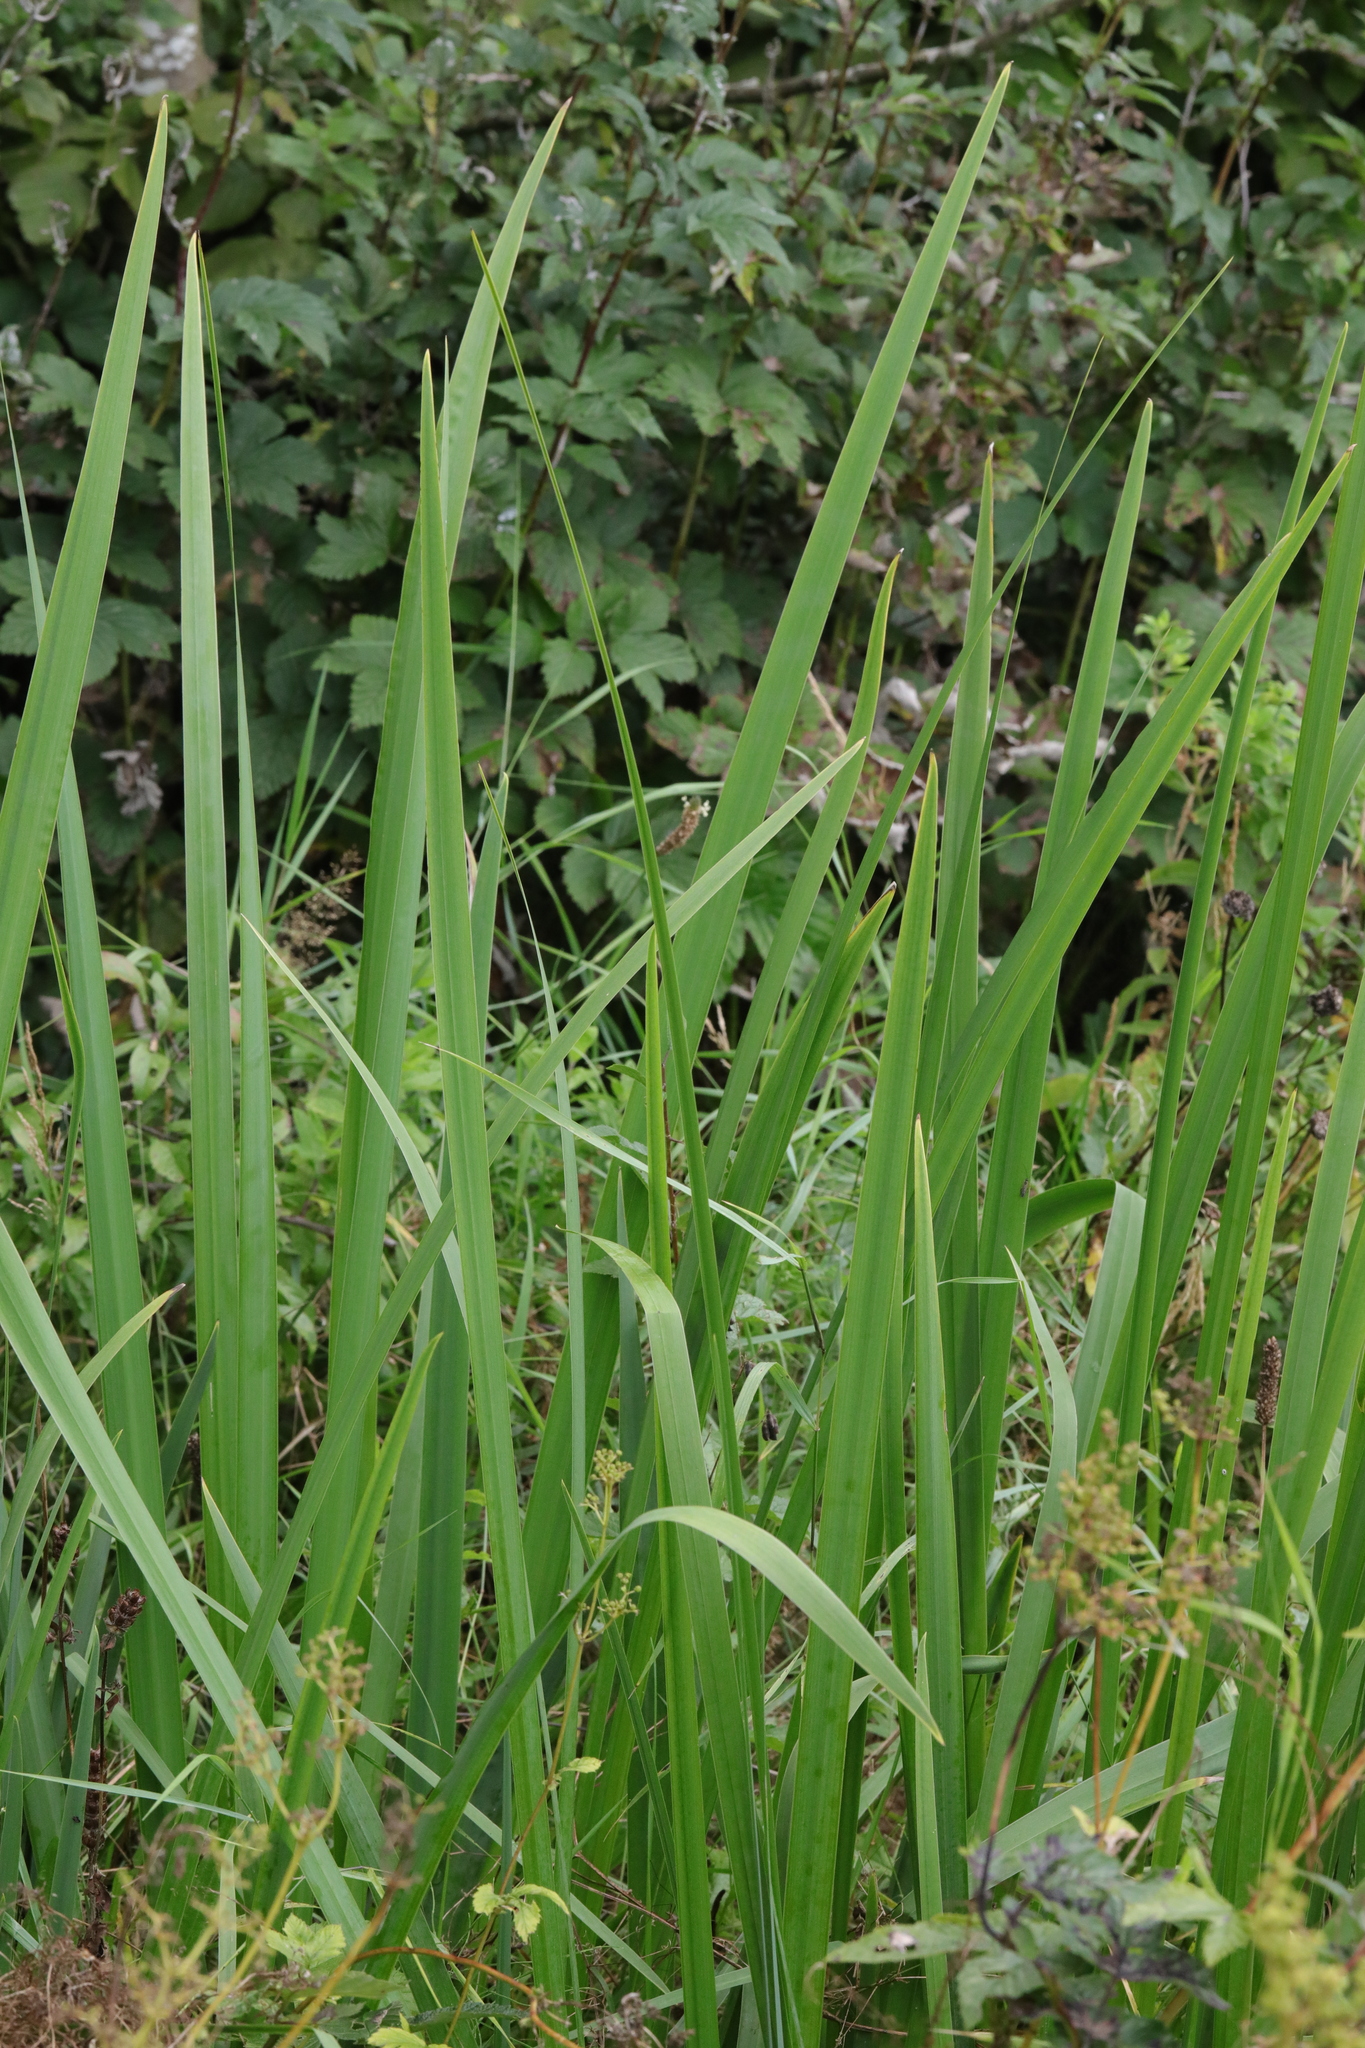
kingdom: Plantae
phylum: Tracheophyta
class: Liliopsida
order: Asparagales
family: Iridaceae
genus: Iris
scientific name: Iris pseudacorus
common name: Yellow flag
